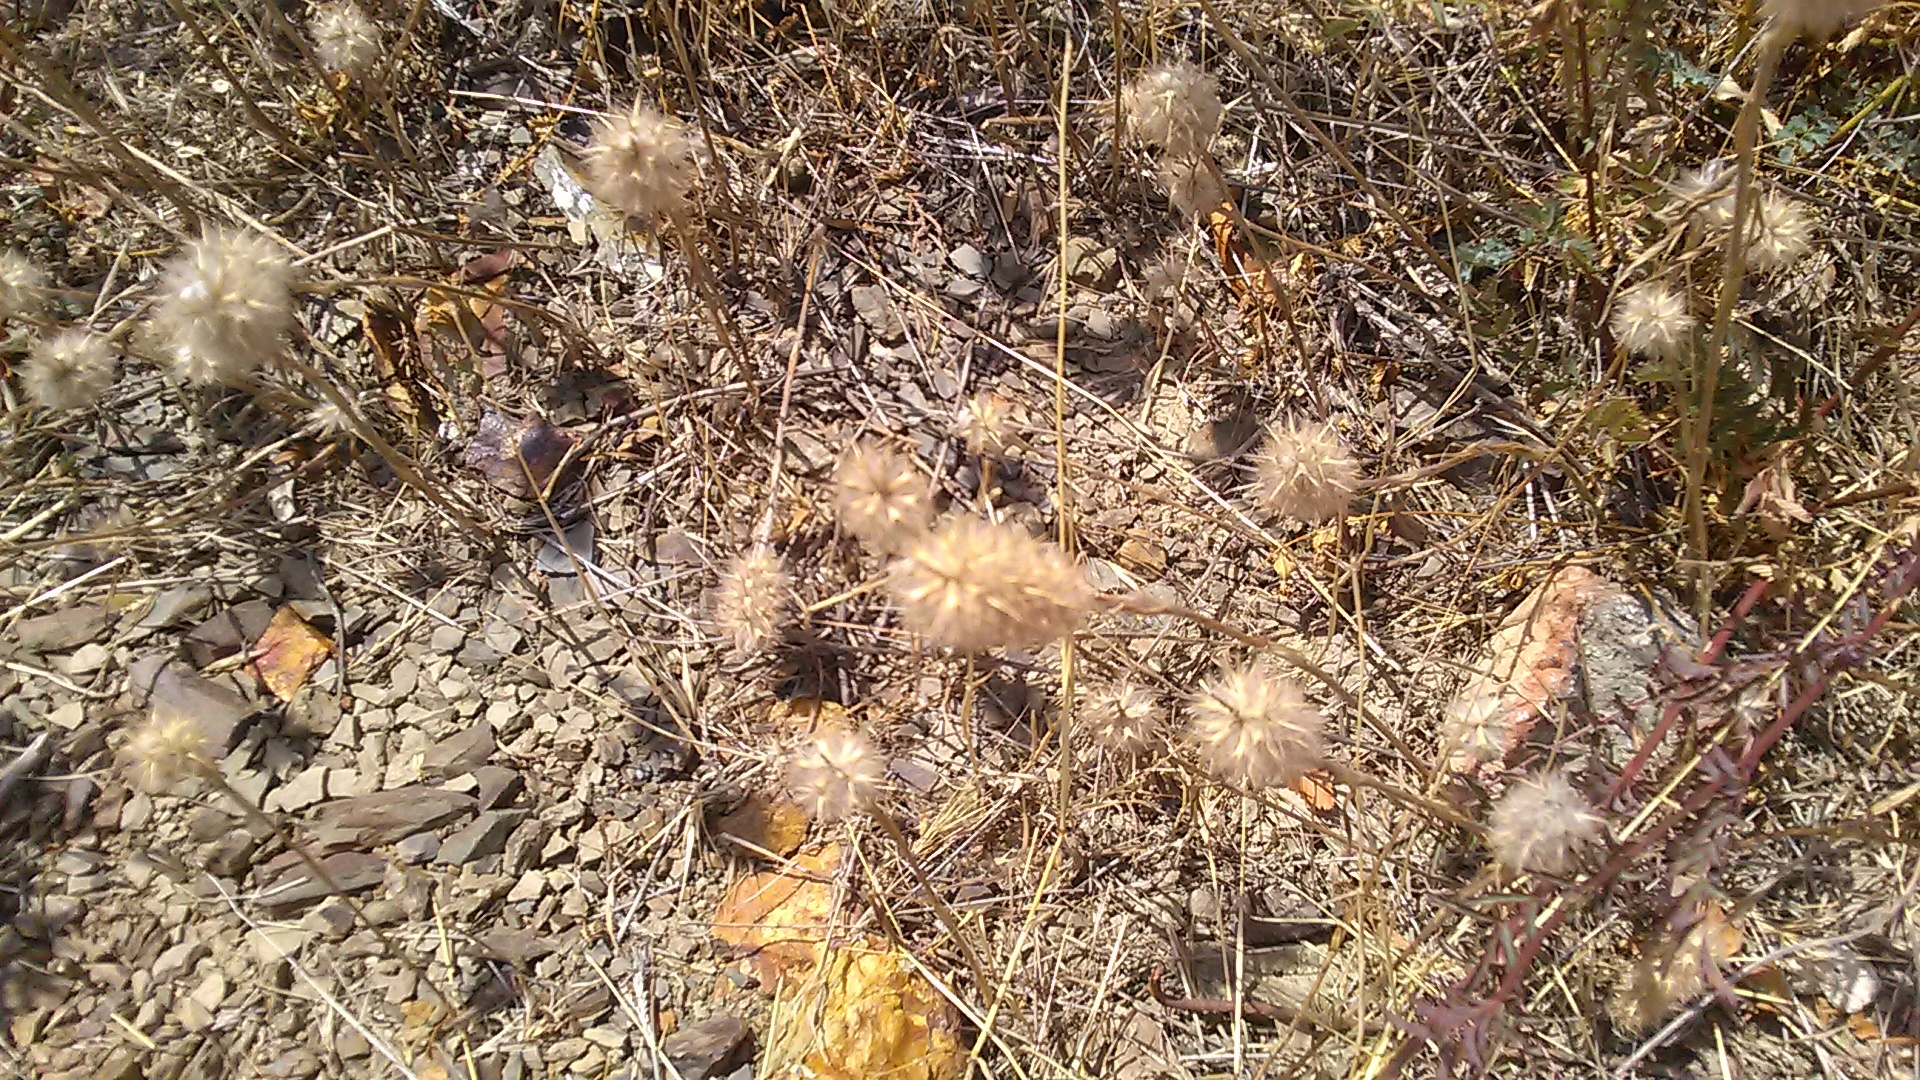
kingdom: Plantae
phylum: Tracheophyta
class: Magnoliopsida
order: Fabales
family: Fabaceae
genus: Trifolium
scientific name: Trifolium arvense
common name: Hare's-foot clover
